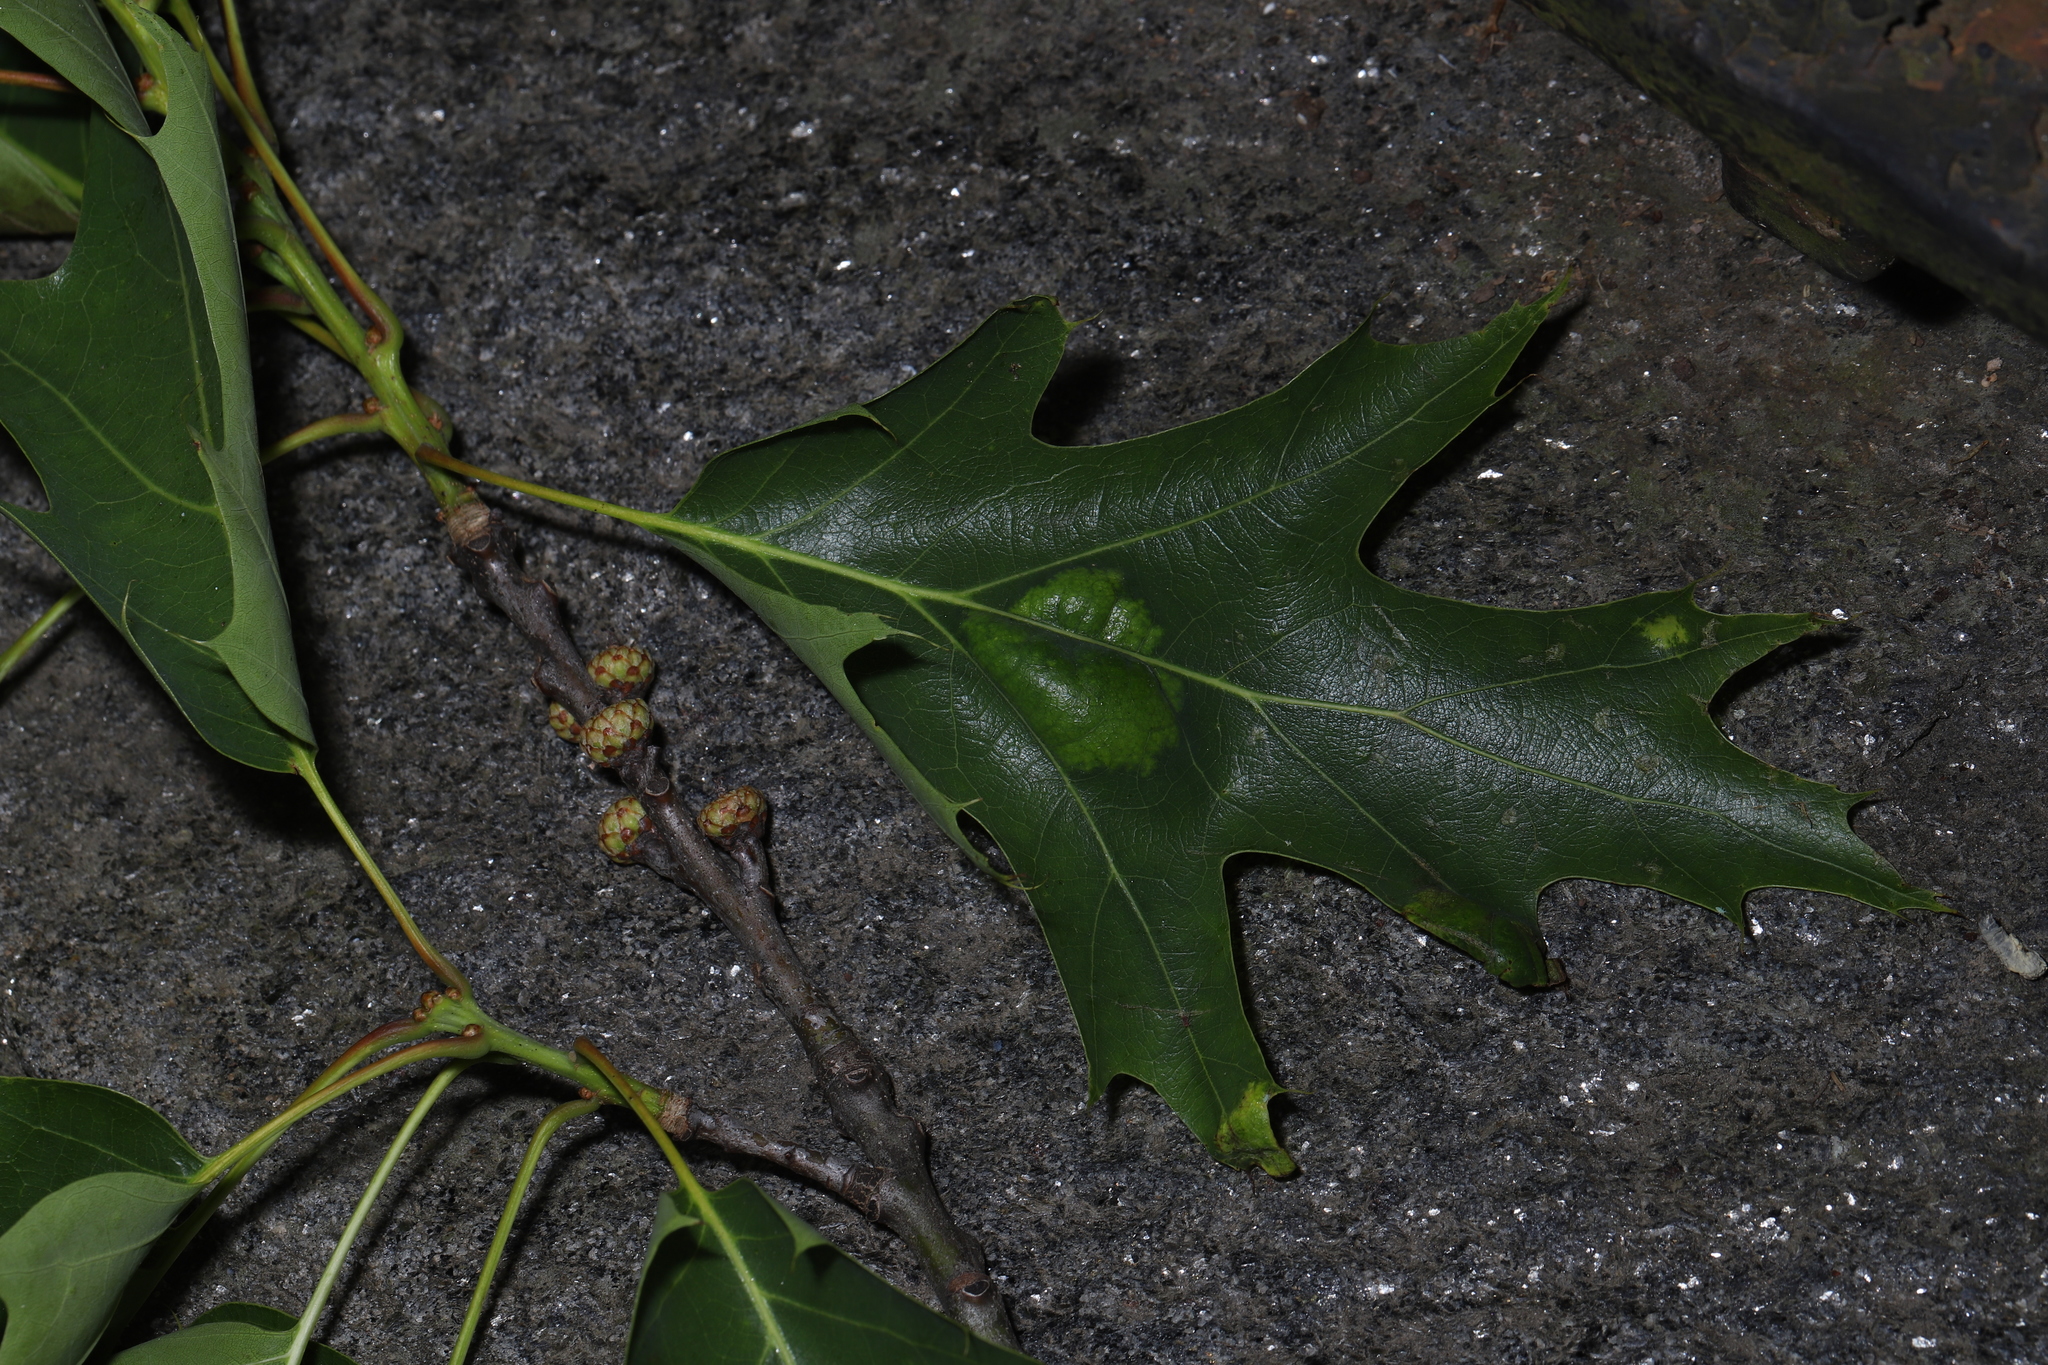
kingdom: Fungi
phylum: Ascomycota
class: Taphrinomycetes
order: Taphrinales
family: Taphrinaceae
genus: Taphrina
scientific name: Taphrina caerulescens
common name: Oak leaf blister
